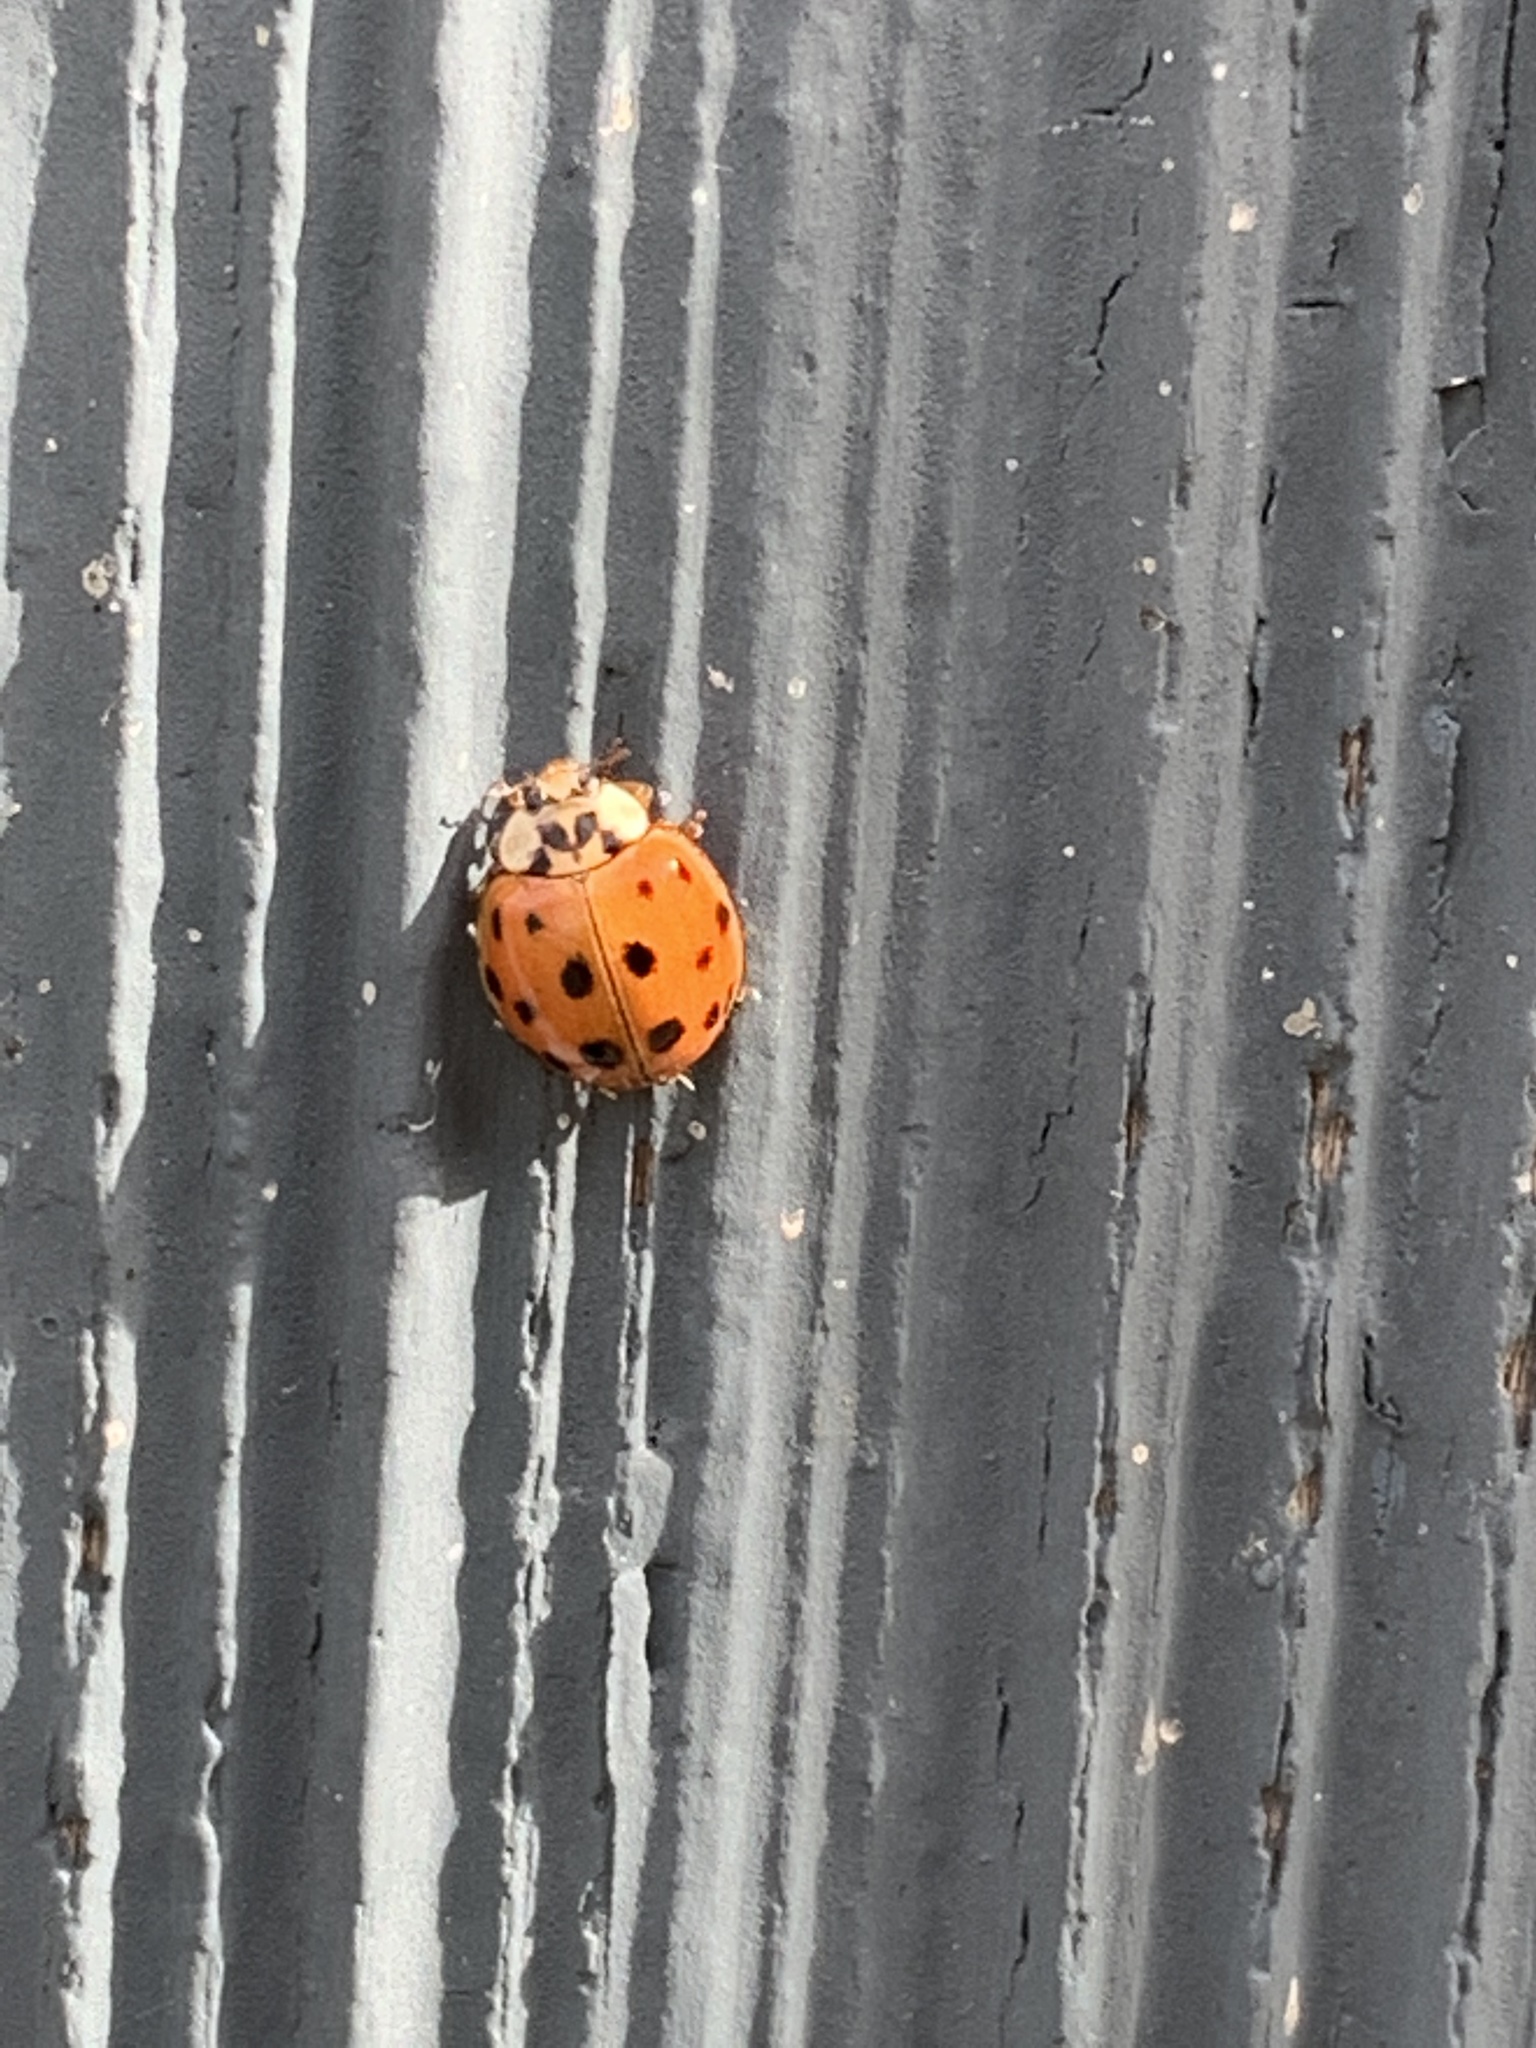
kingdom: Animalia
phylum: Arthropoda
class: Insecta
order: Coleoptera
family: Coccinellidae
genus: Harmonia
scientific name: Harmonia axyridis
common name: Harlequin ladybird
